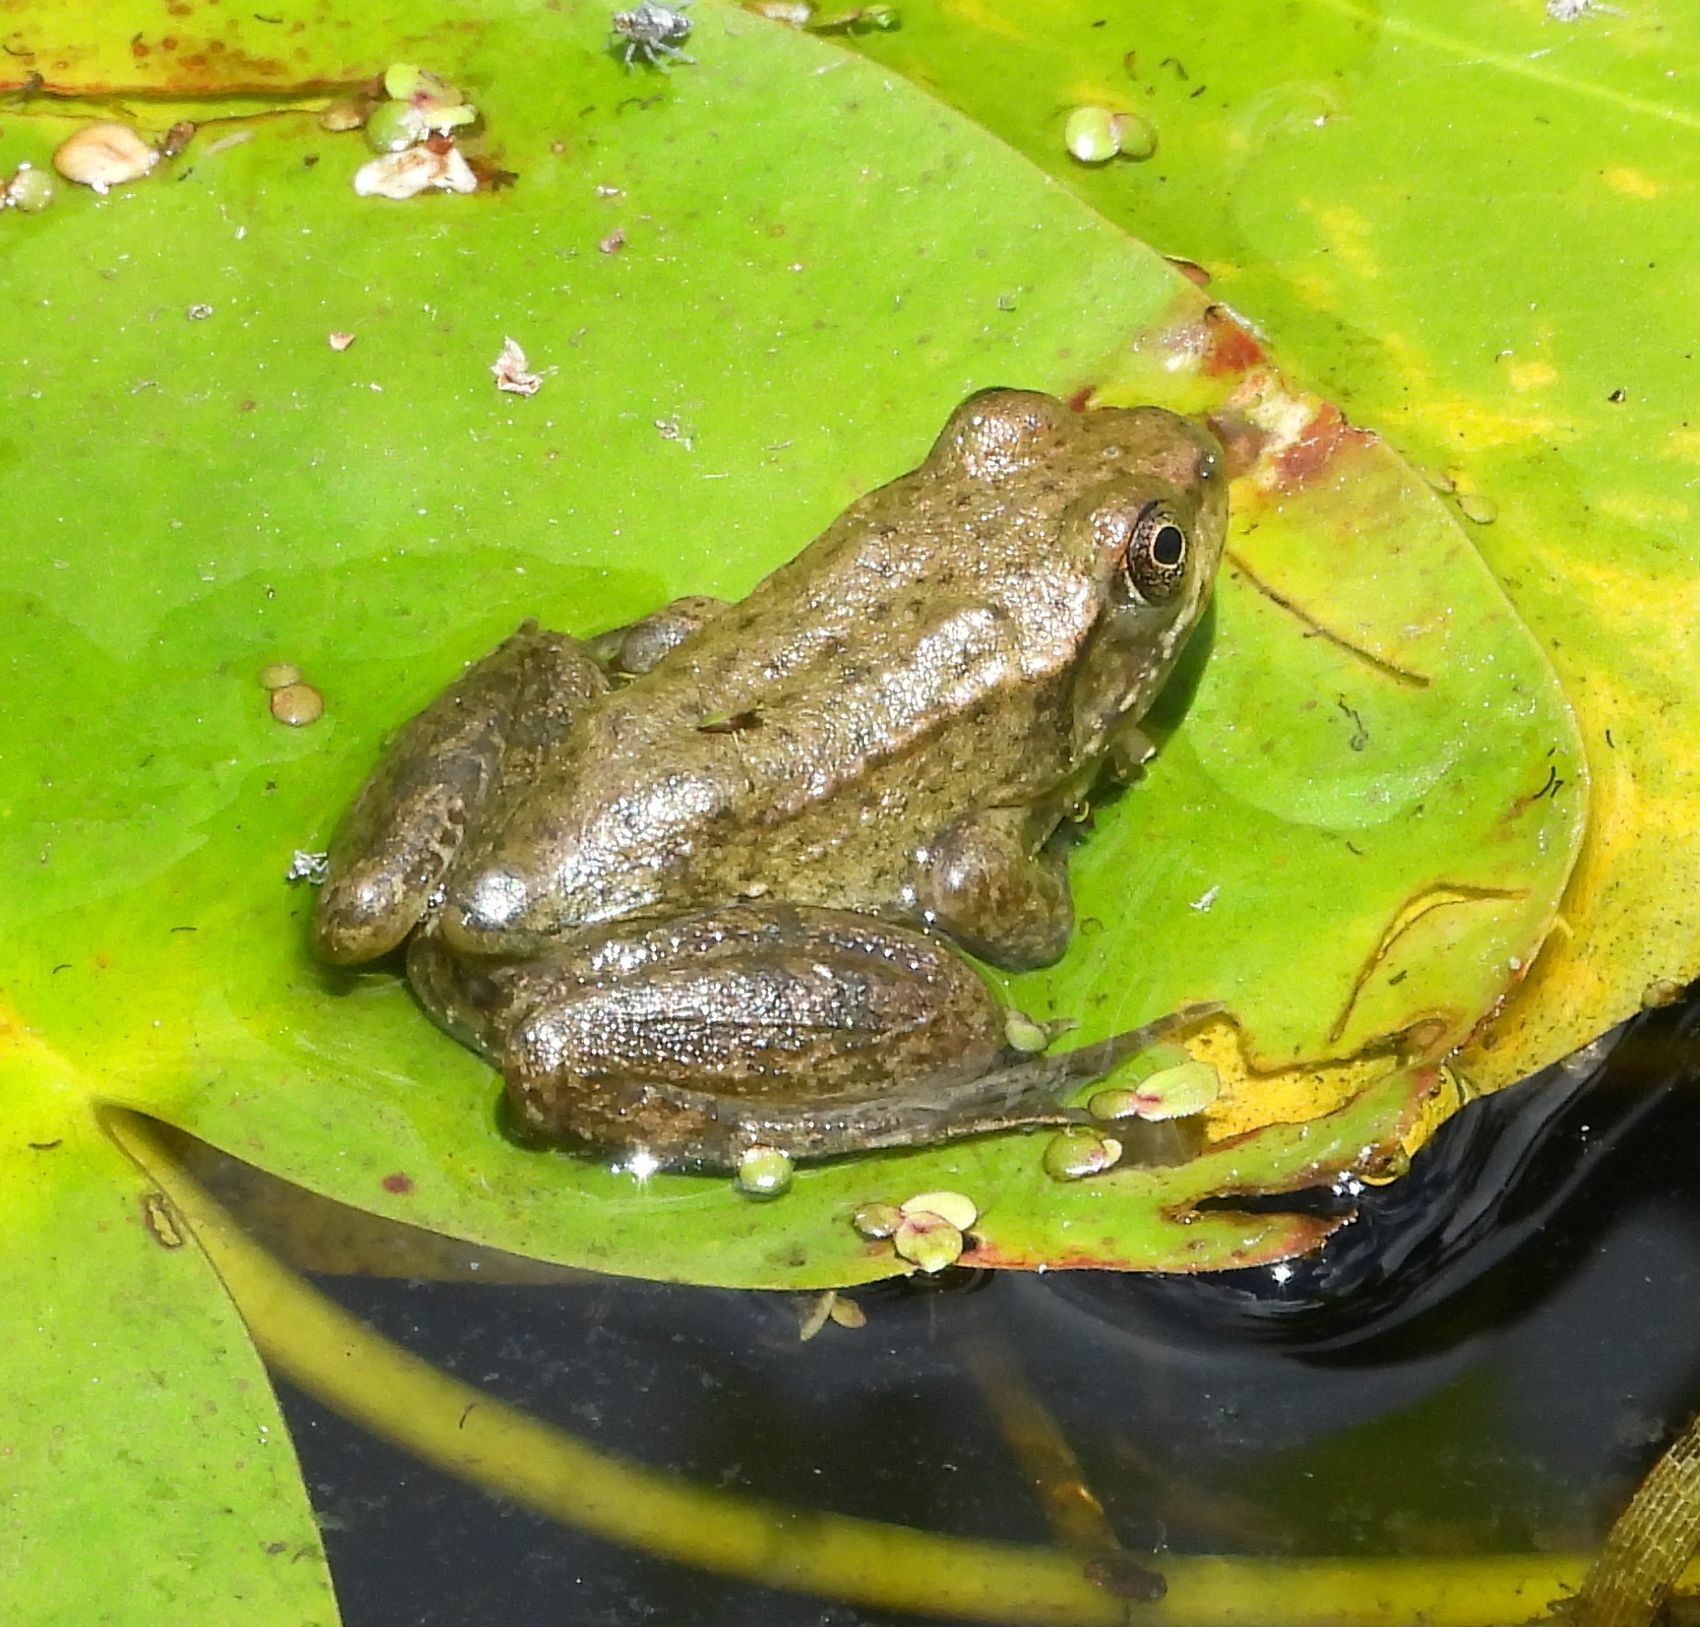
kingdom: Animalia
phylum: Chordata
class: Amphibia
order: Anura
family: Ranidae
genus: Lithobates
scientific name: Lithobates clamitans
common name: Green frog
